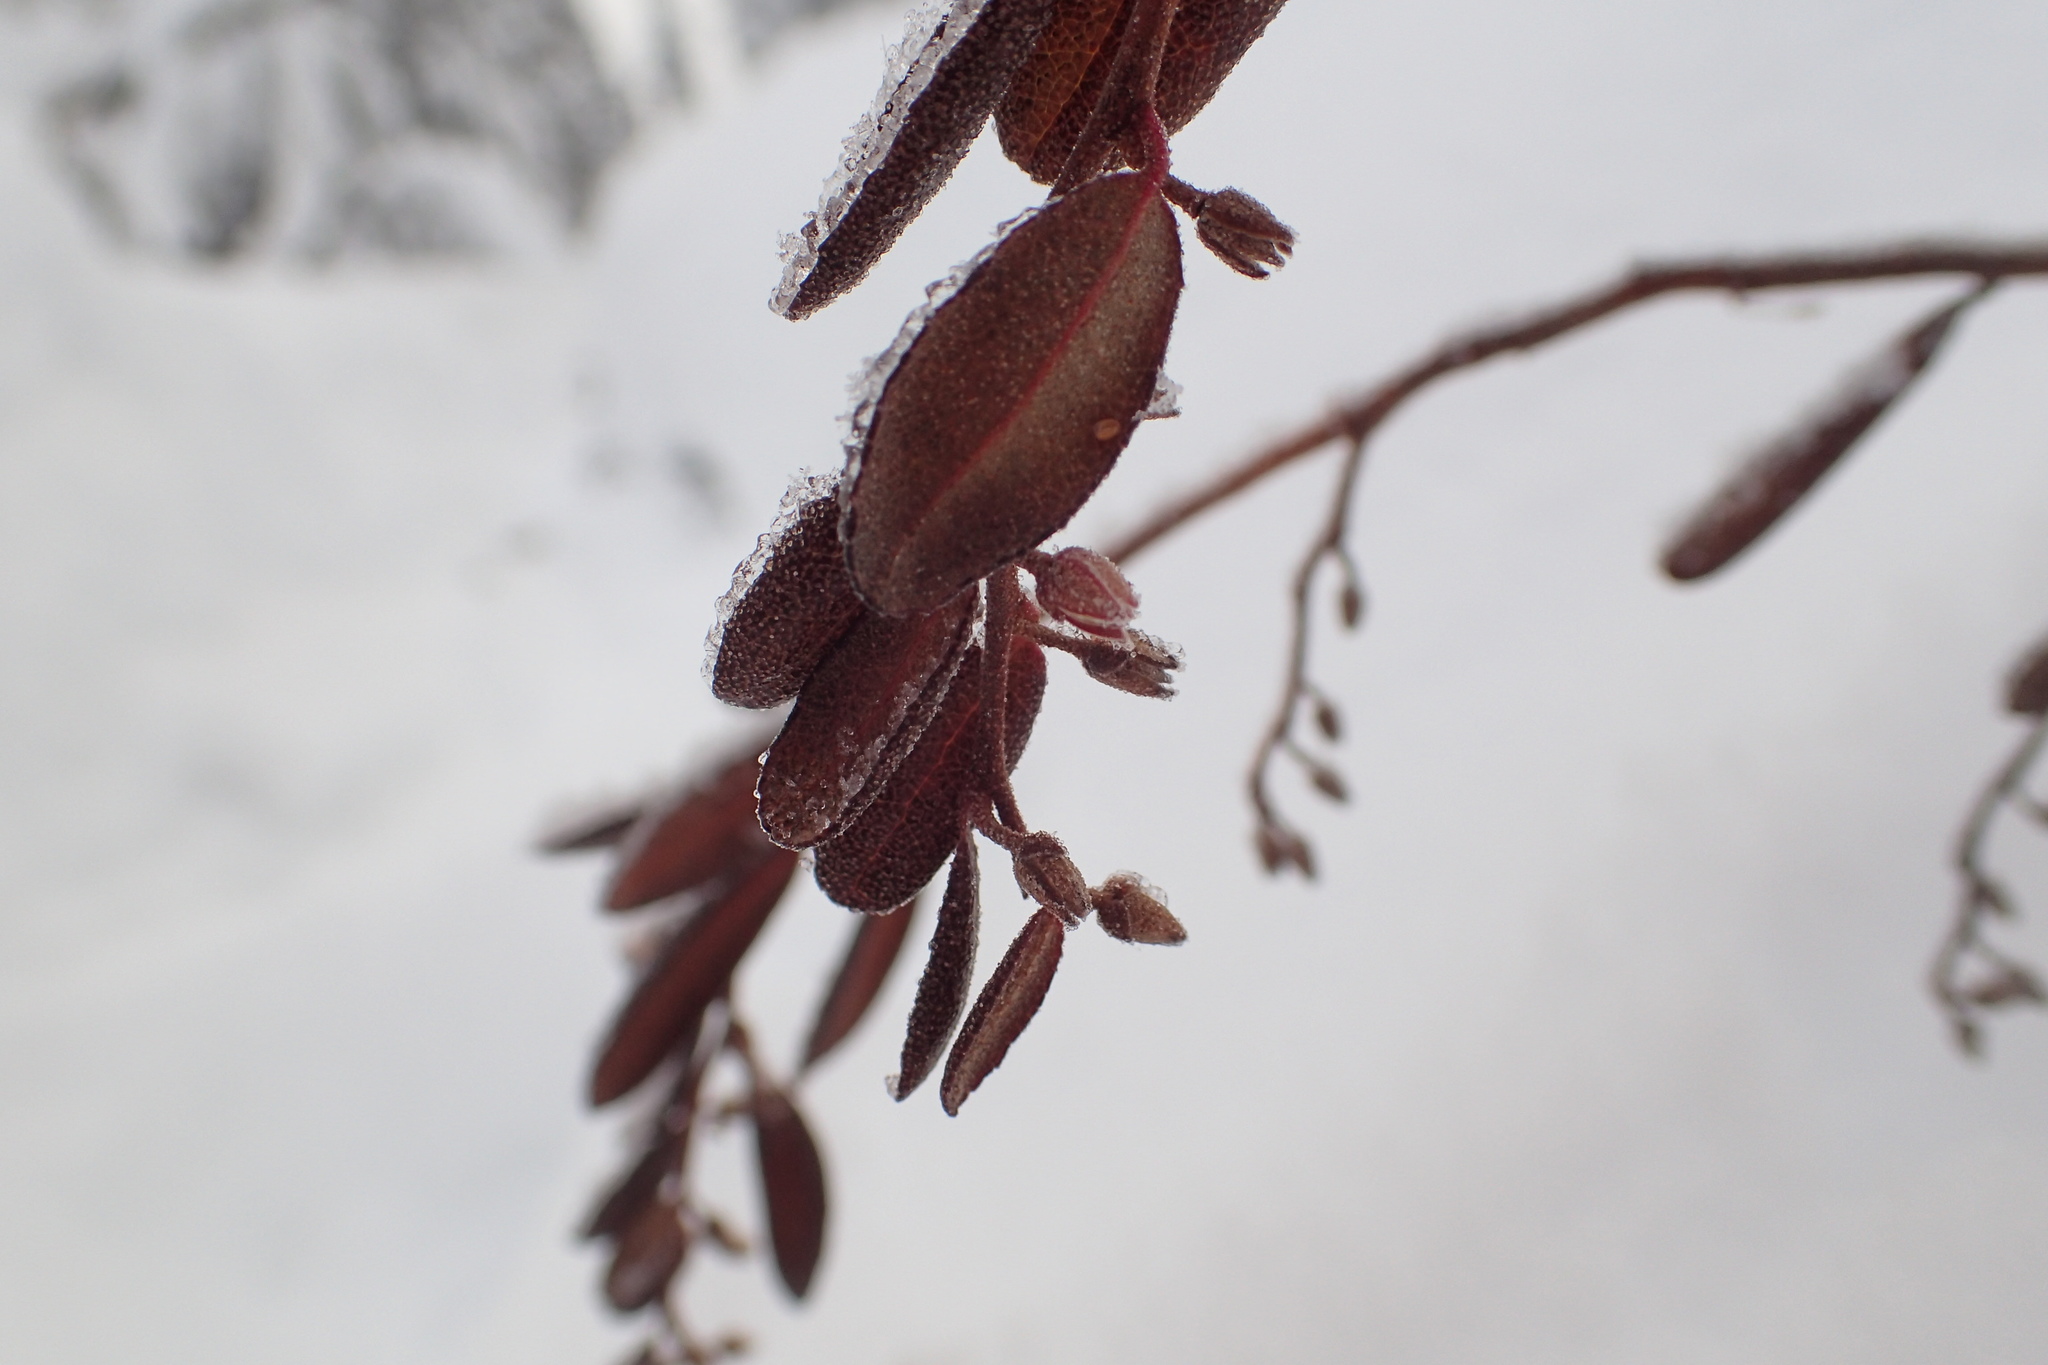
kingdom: Plantae
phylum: Tracheophyta
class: Magnoliopsida
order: Ericales
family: Ericaceae
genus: Chamaedaphne
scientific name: Chamaedaphne calyculata
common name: Leatherleaf
